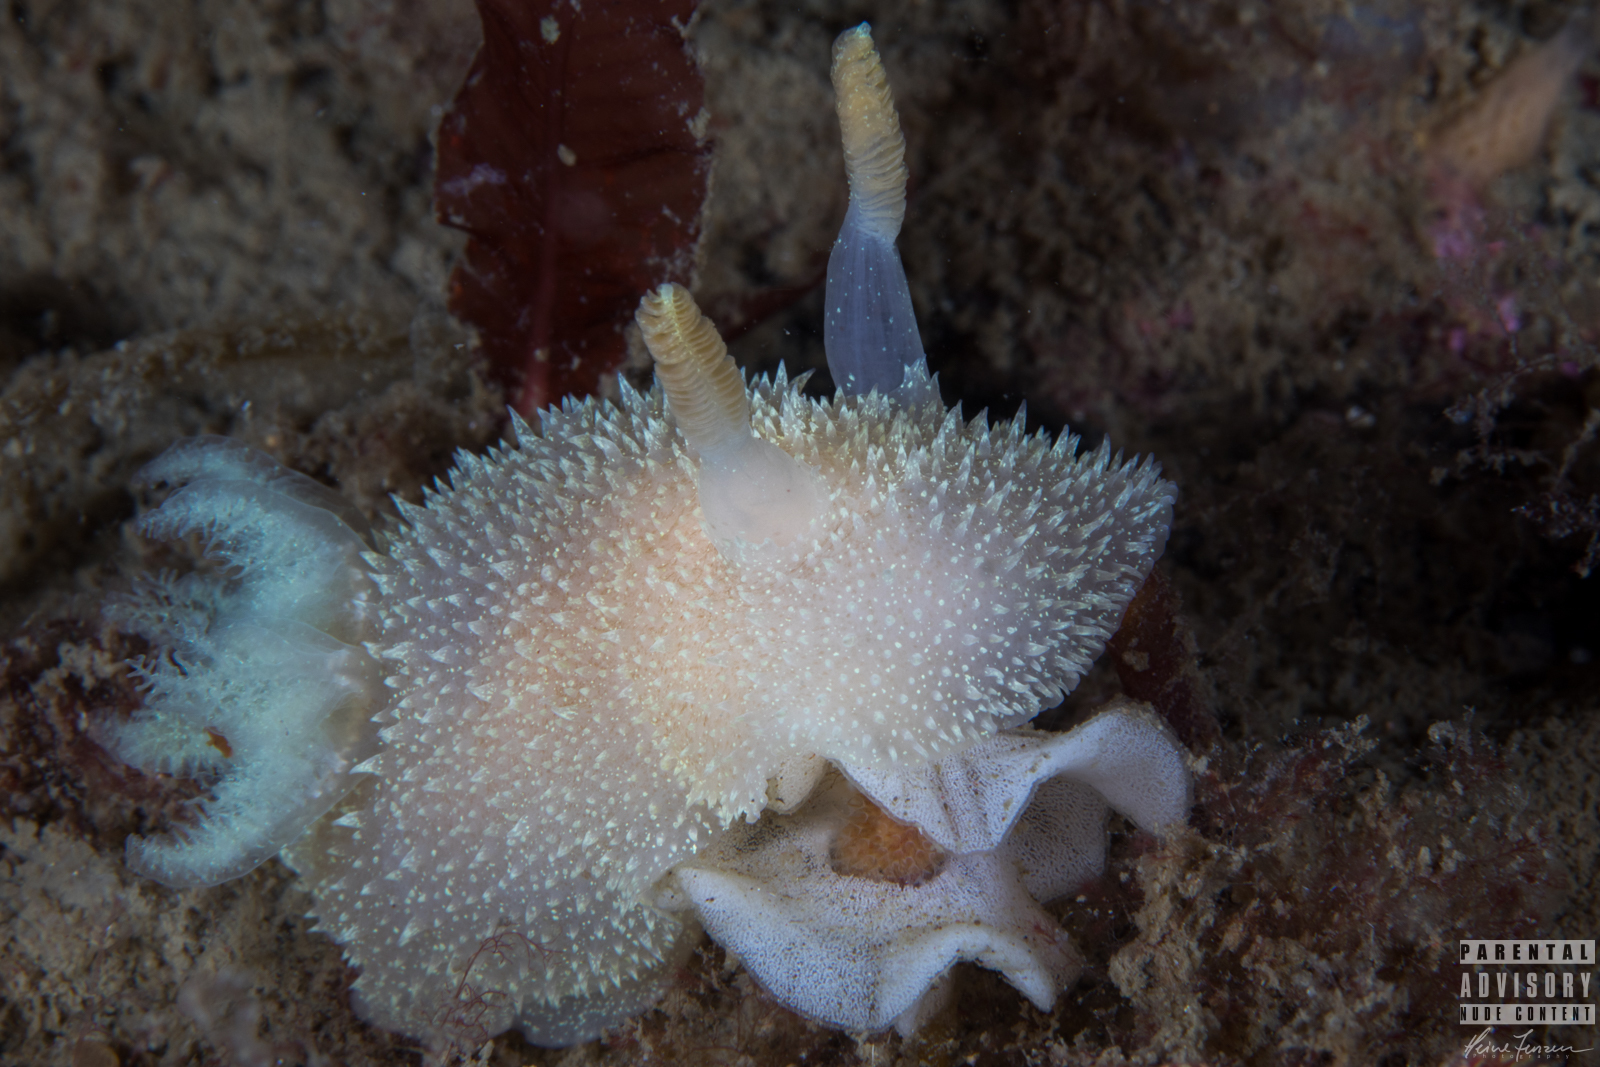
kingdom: Animalia
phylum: Mollusca
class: Gastropoda
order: Nudibranchia
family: Onchidorididae
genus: Acanthodoris
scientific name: Acanthodoris pilosa
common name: Hairy spiny doris
